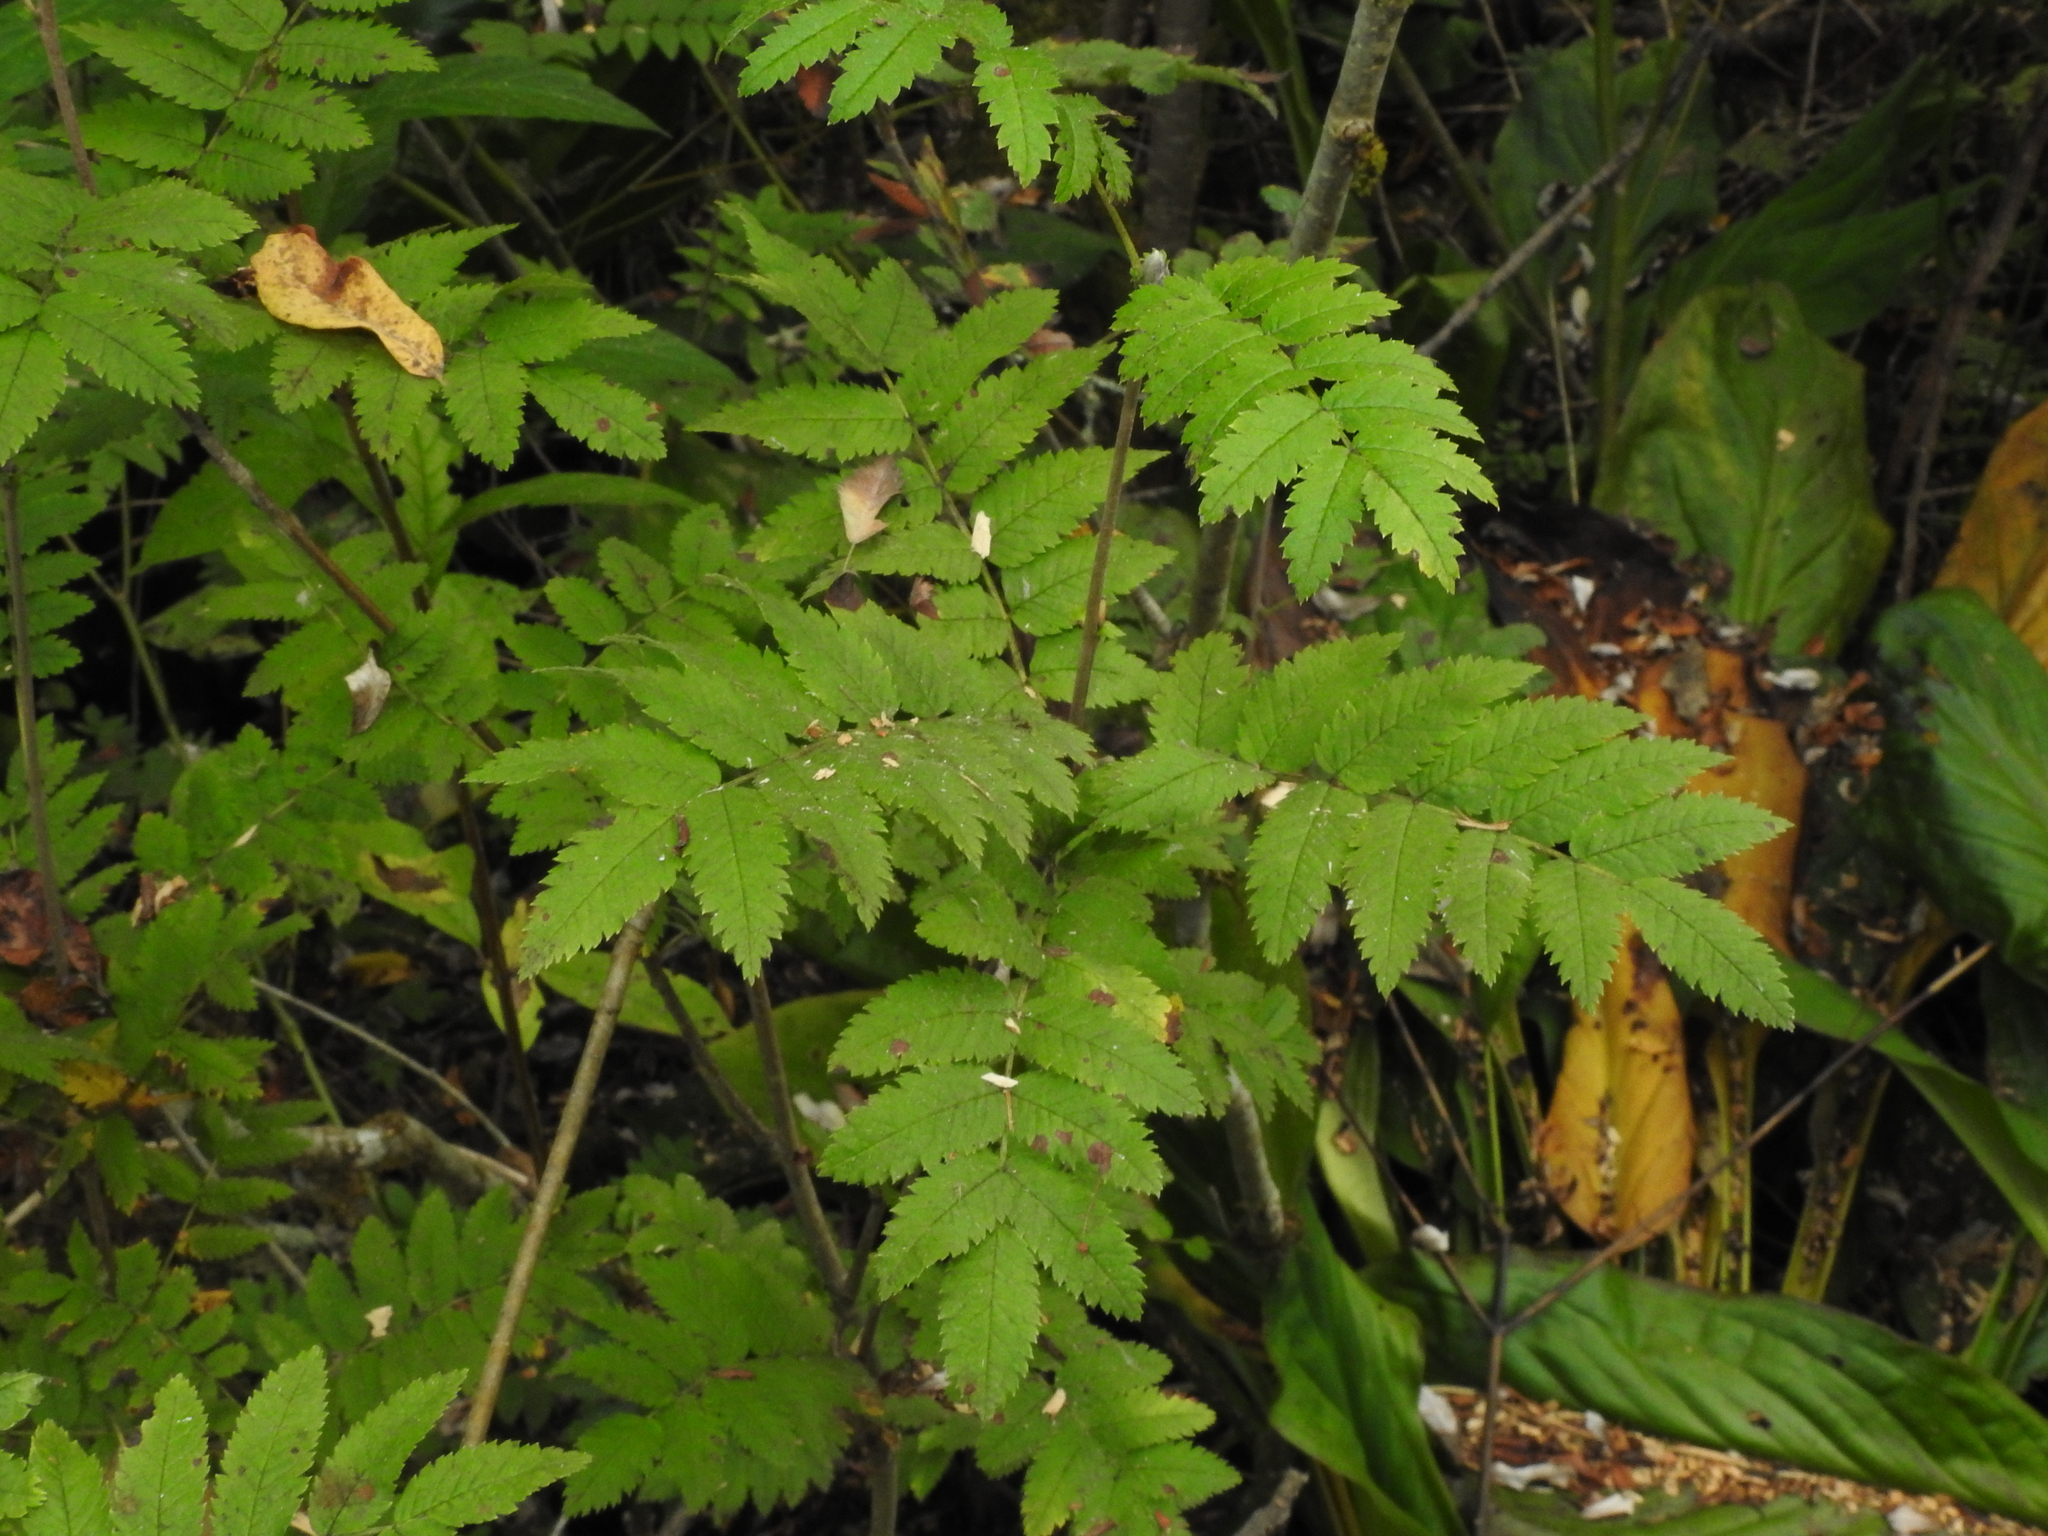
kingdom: Plantae
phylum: Tracheophyta
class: Magnoliopsida
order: Rosales
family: Rosaceae
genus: Sorbus
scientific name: Sorbus aucuparia
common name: Rowan
